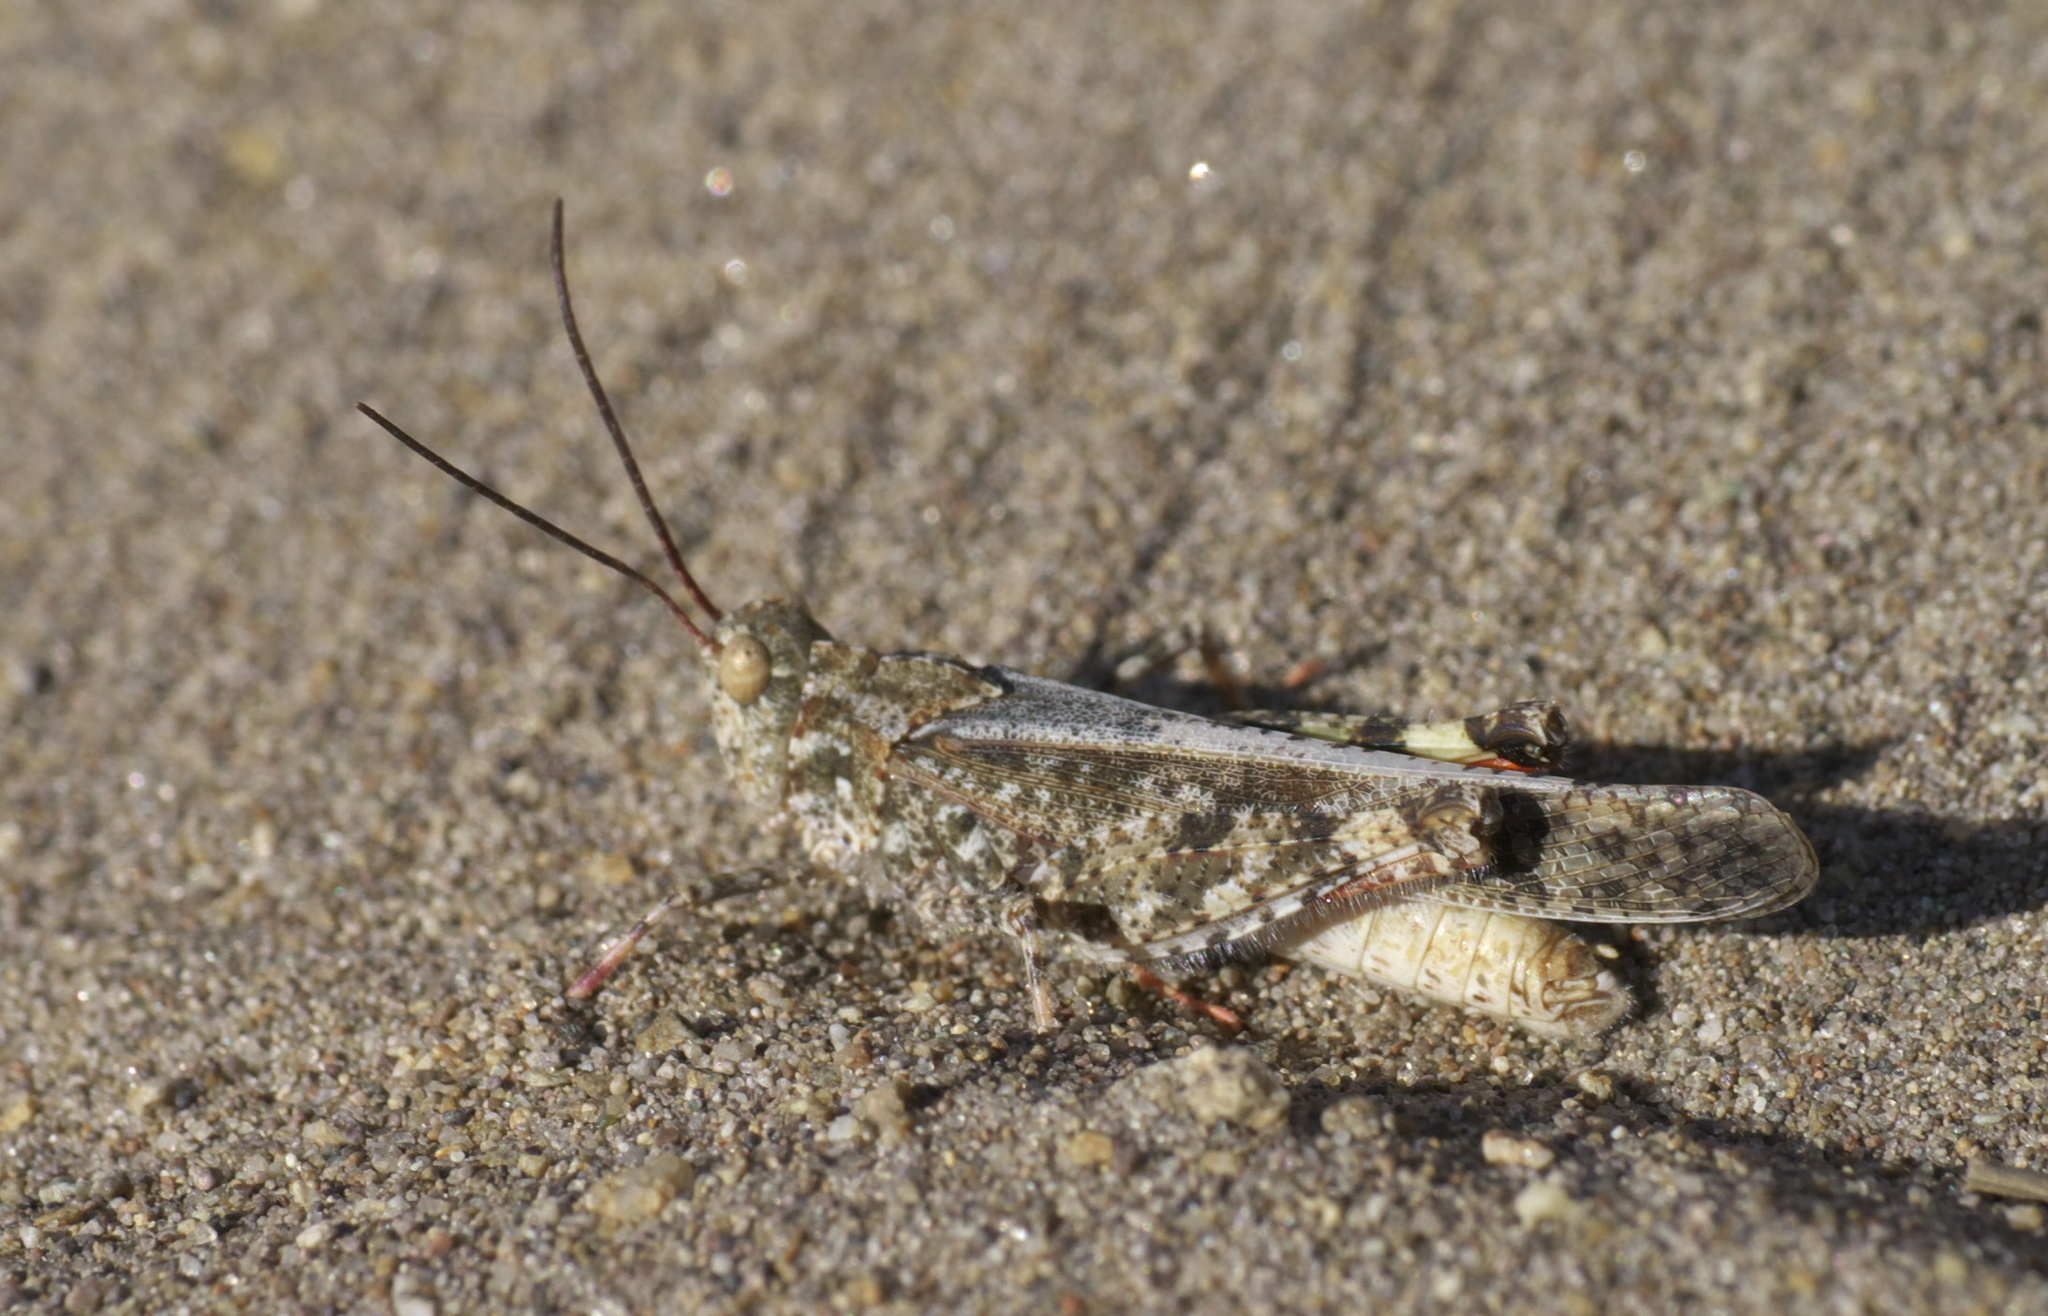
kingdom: Animalia
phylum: Arthropoda
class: Insecta
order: Orthoptera
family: Acrididae
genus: Spharagemon
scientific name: Spharagemon collare
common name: Mottled sand grasshopper
